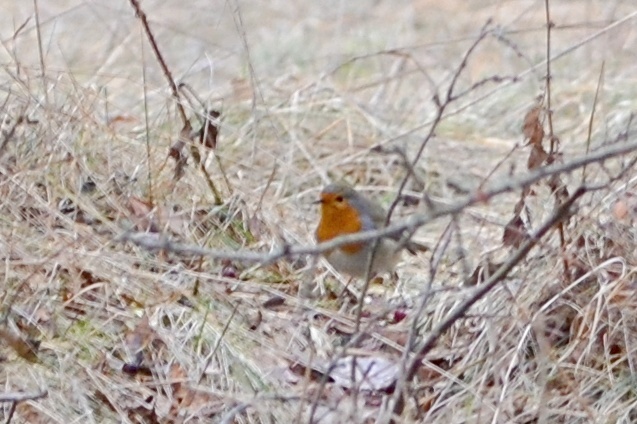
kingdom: Animalia
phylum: Chordata
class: Aves
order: Passeriformes
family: Muscicapidae
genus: Erithacus
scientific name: Erithacus rubecula
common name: European robin
